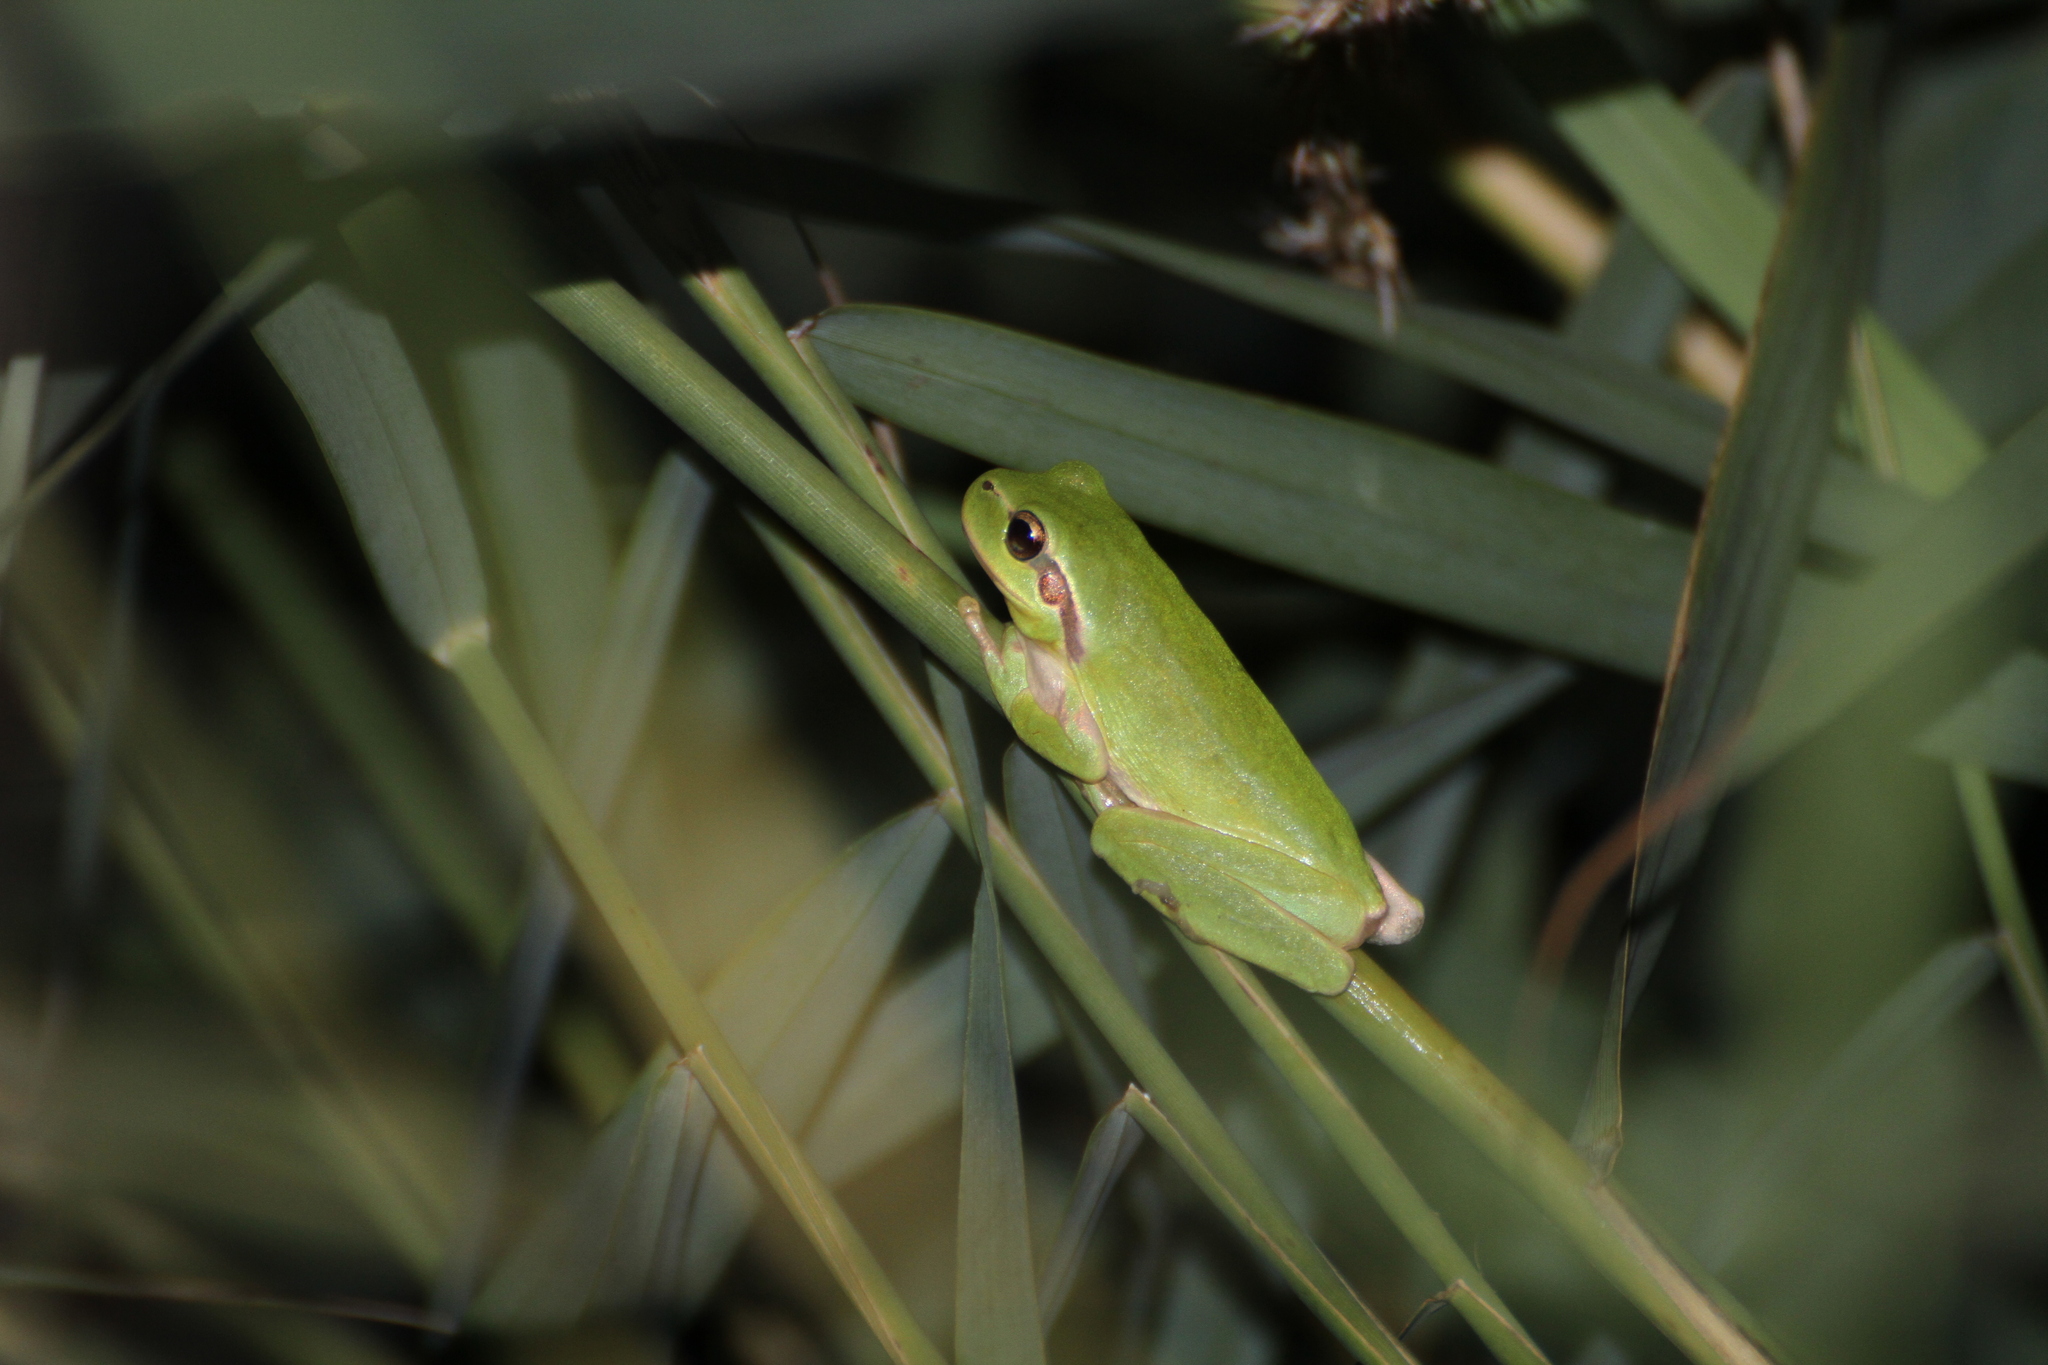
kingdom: Animalia
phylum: Chordata
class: Amphibia
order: Anura
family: Hylidae
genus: Hyla
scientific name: Hyla meridionalis
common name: Stripeless tree frog
